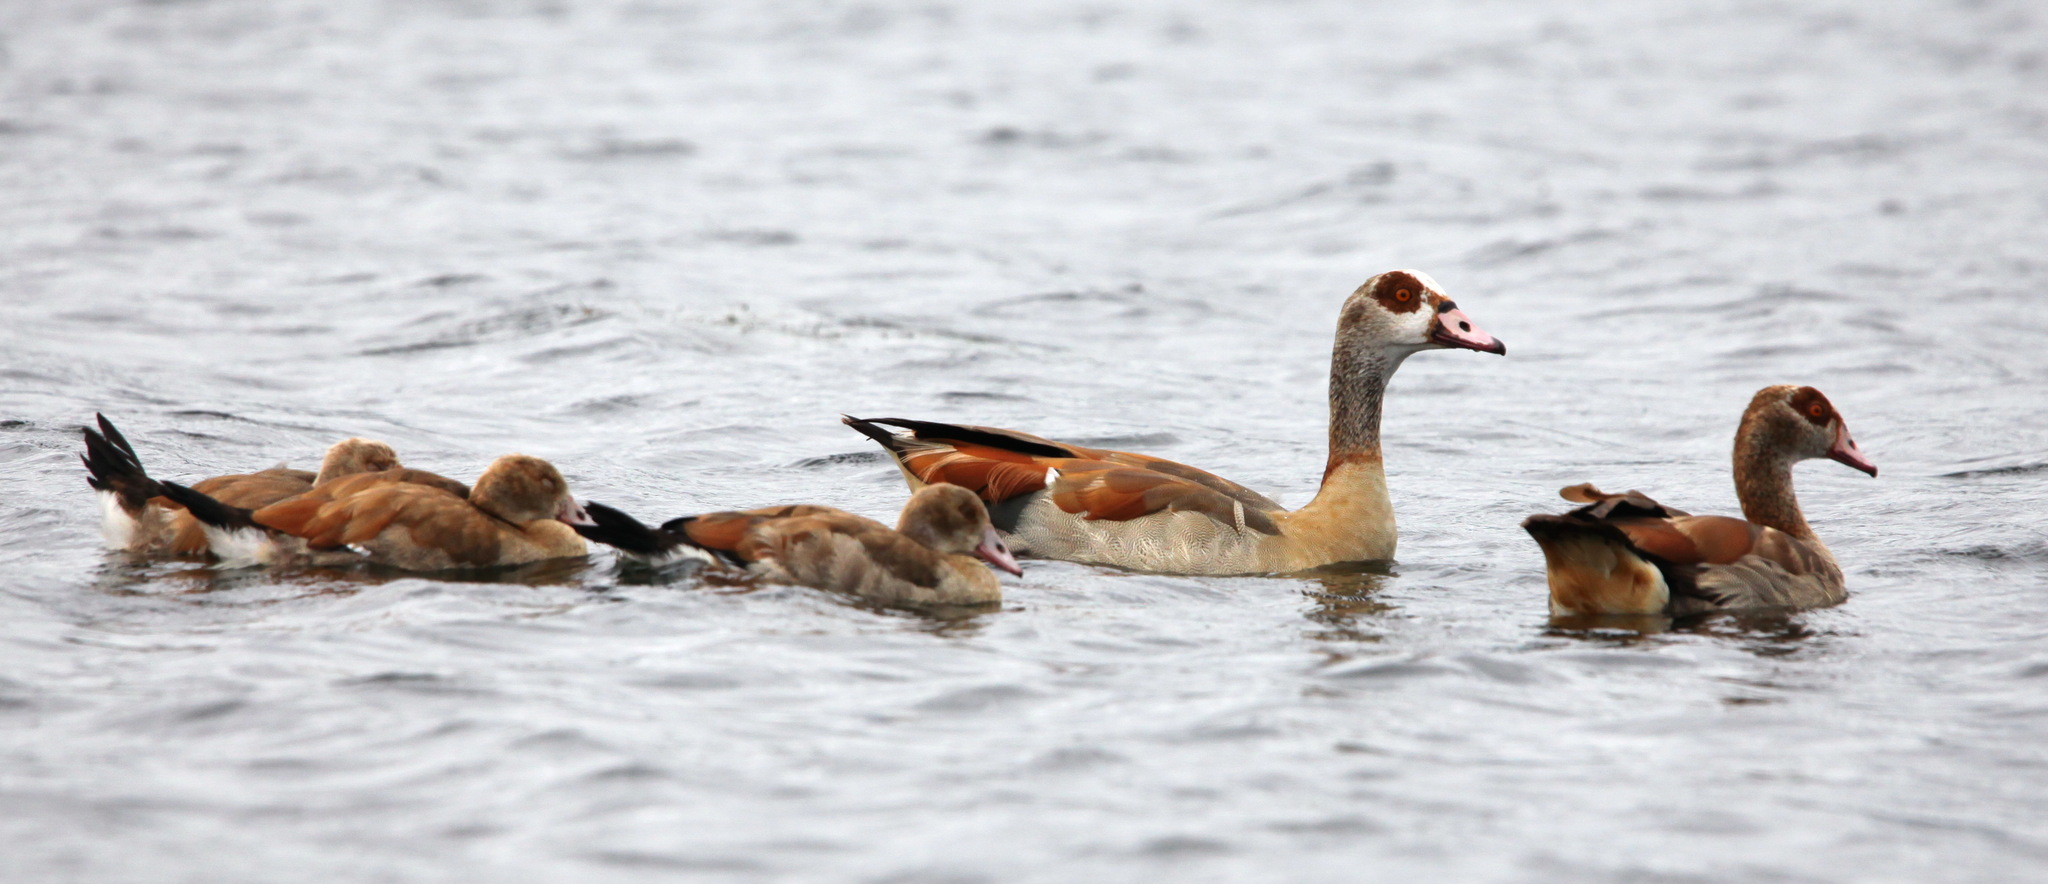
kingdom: Animalia
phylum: Chordata
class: Aves
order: Anseriformes
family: Anatidae
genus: Alopochen
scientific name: Alopochen aegyptiaca
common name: Egyptian goose
